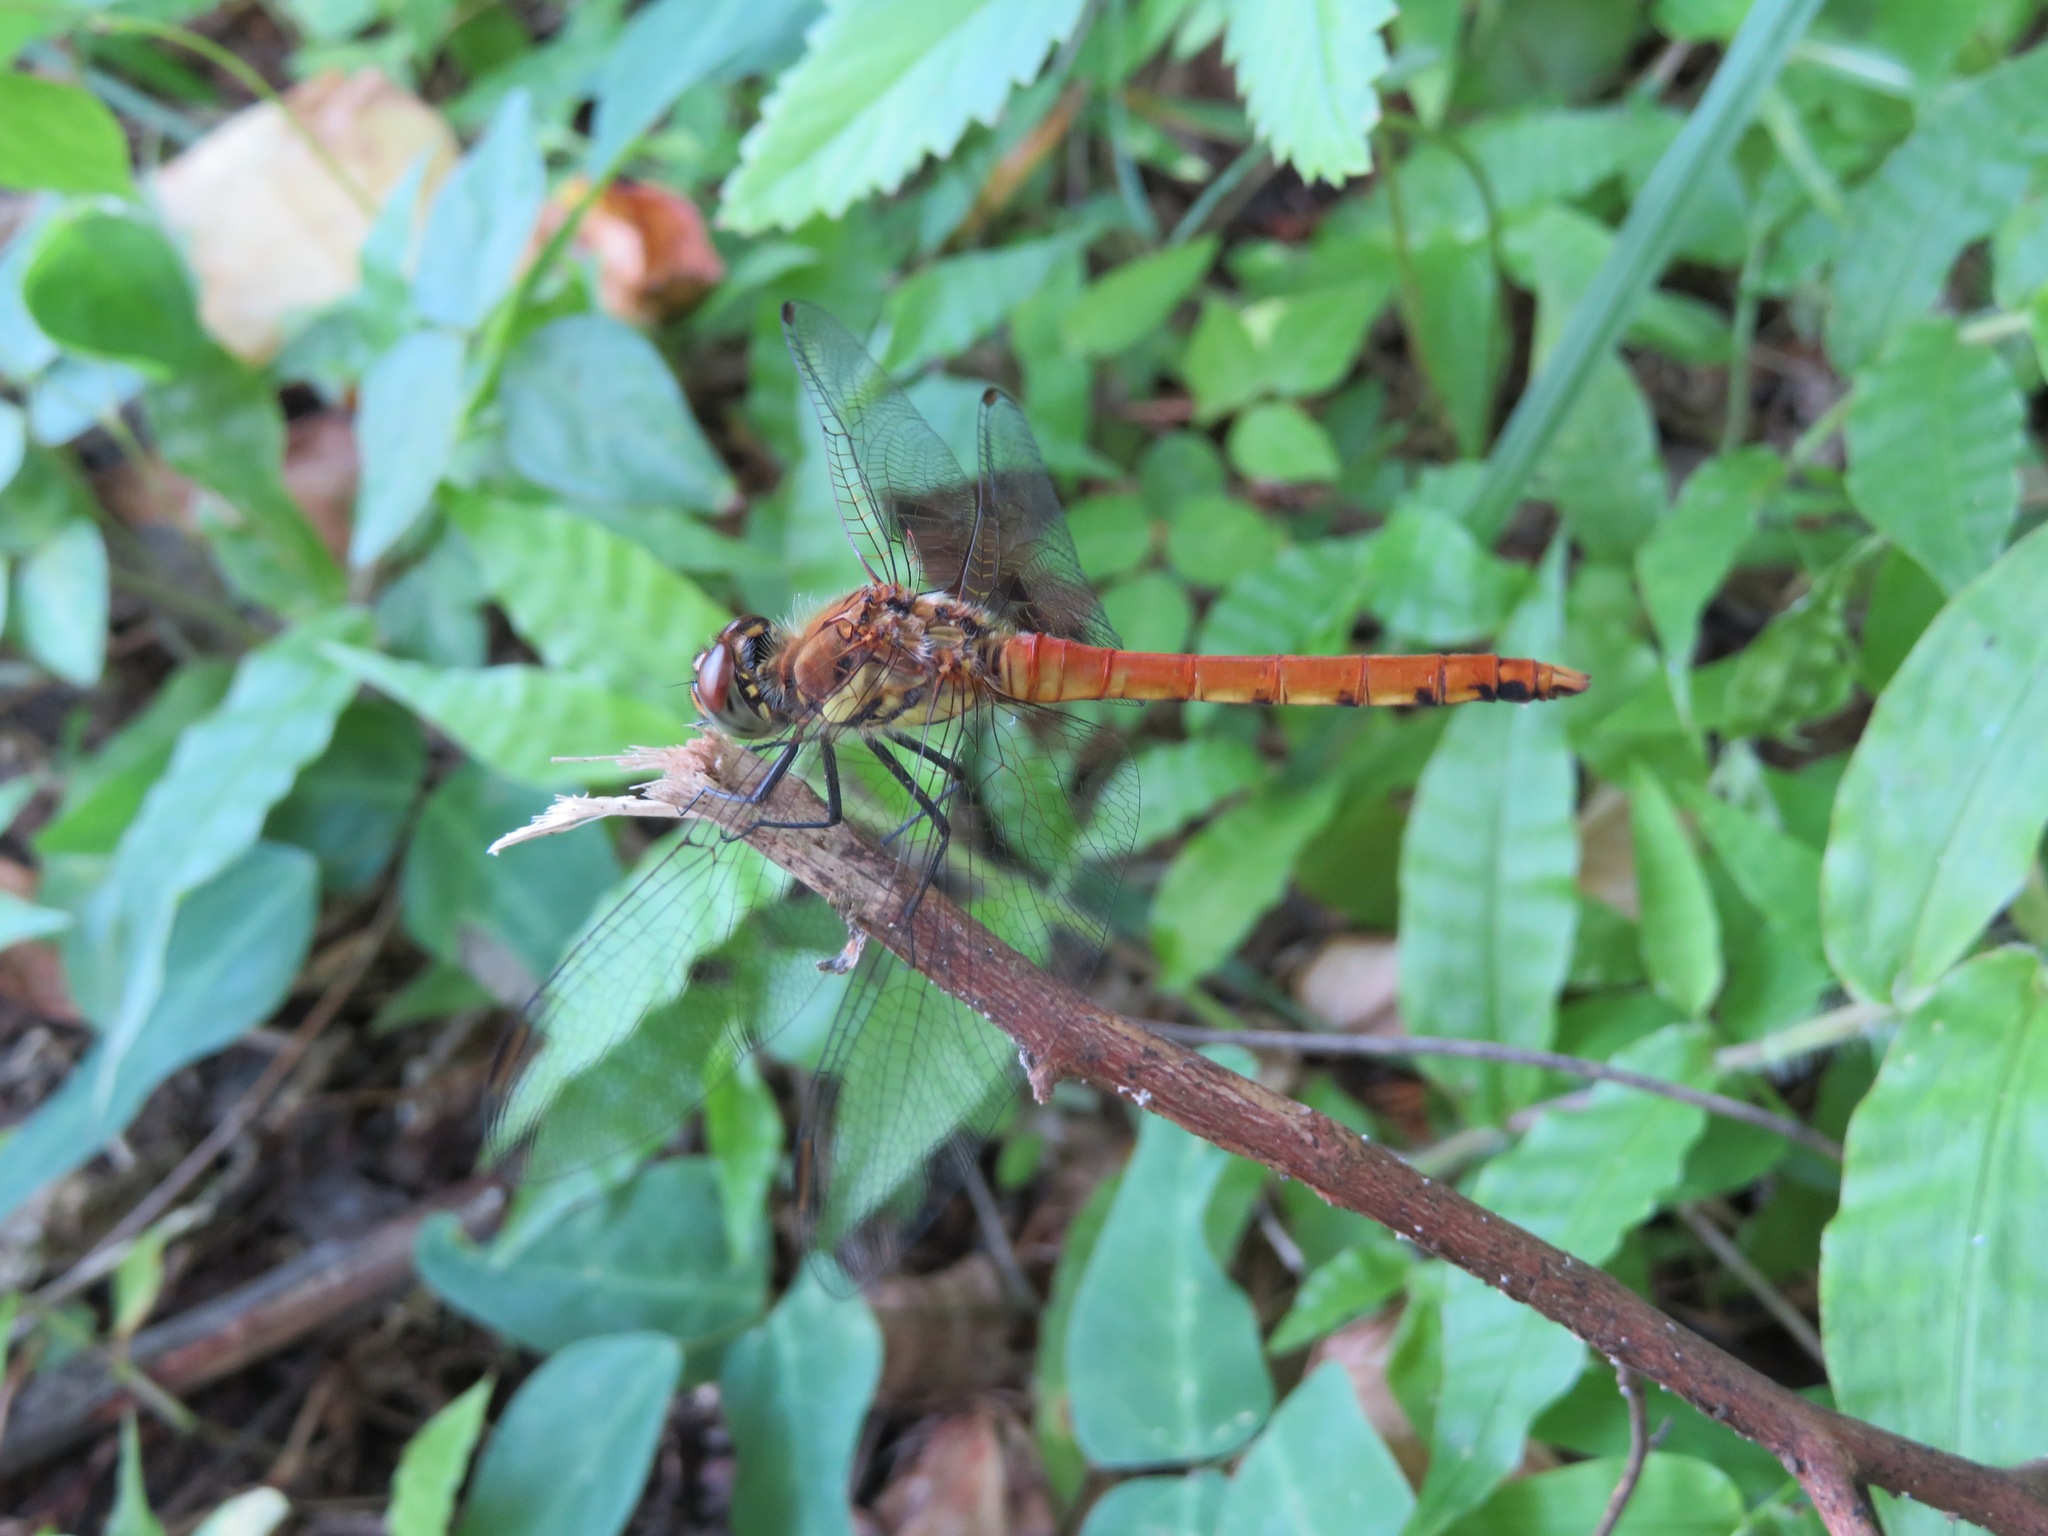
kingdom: Animalia
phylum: Arthropoda
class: Insecta
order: Odonata
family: Libellulidae
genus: Sympetrum
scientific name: Sympetrum darwinianum
